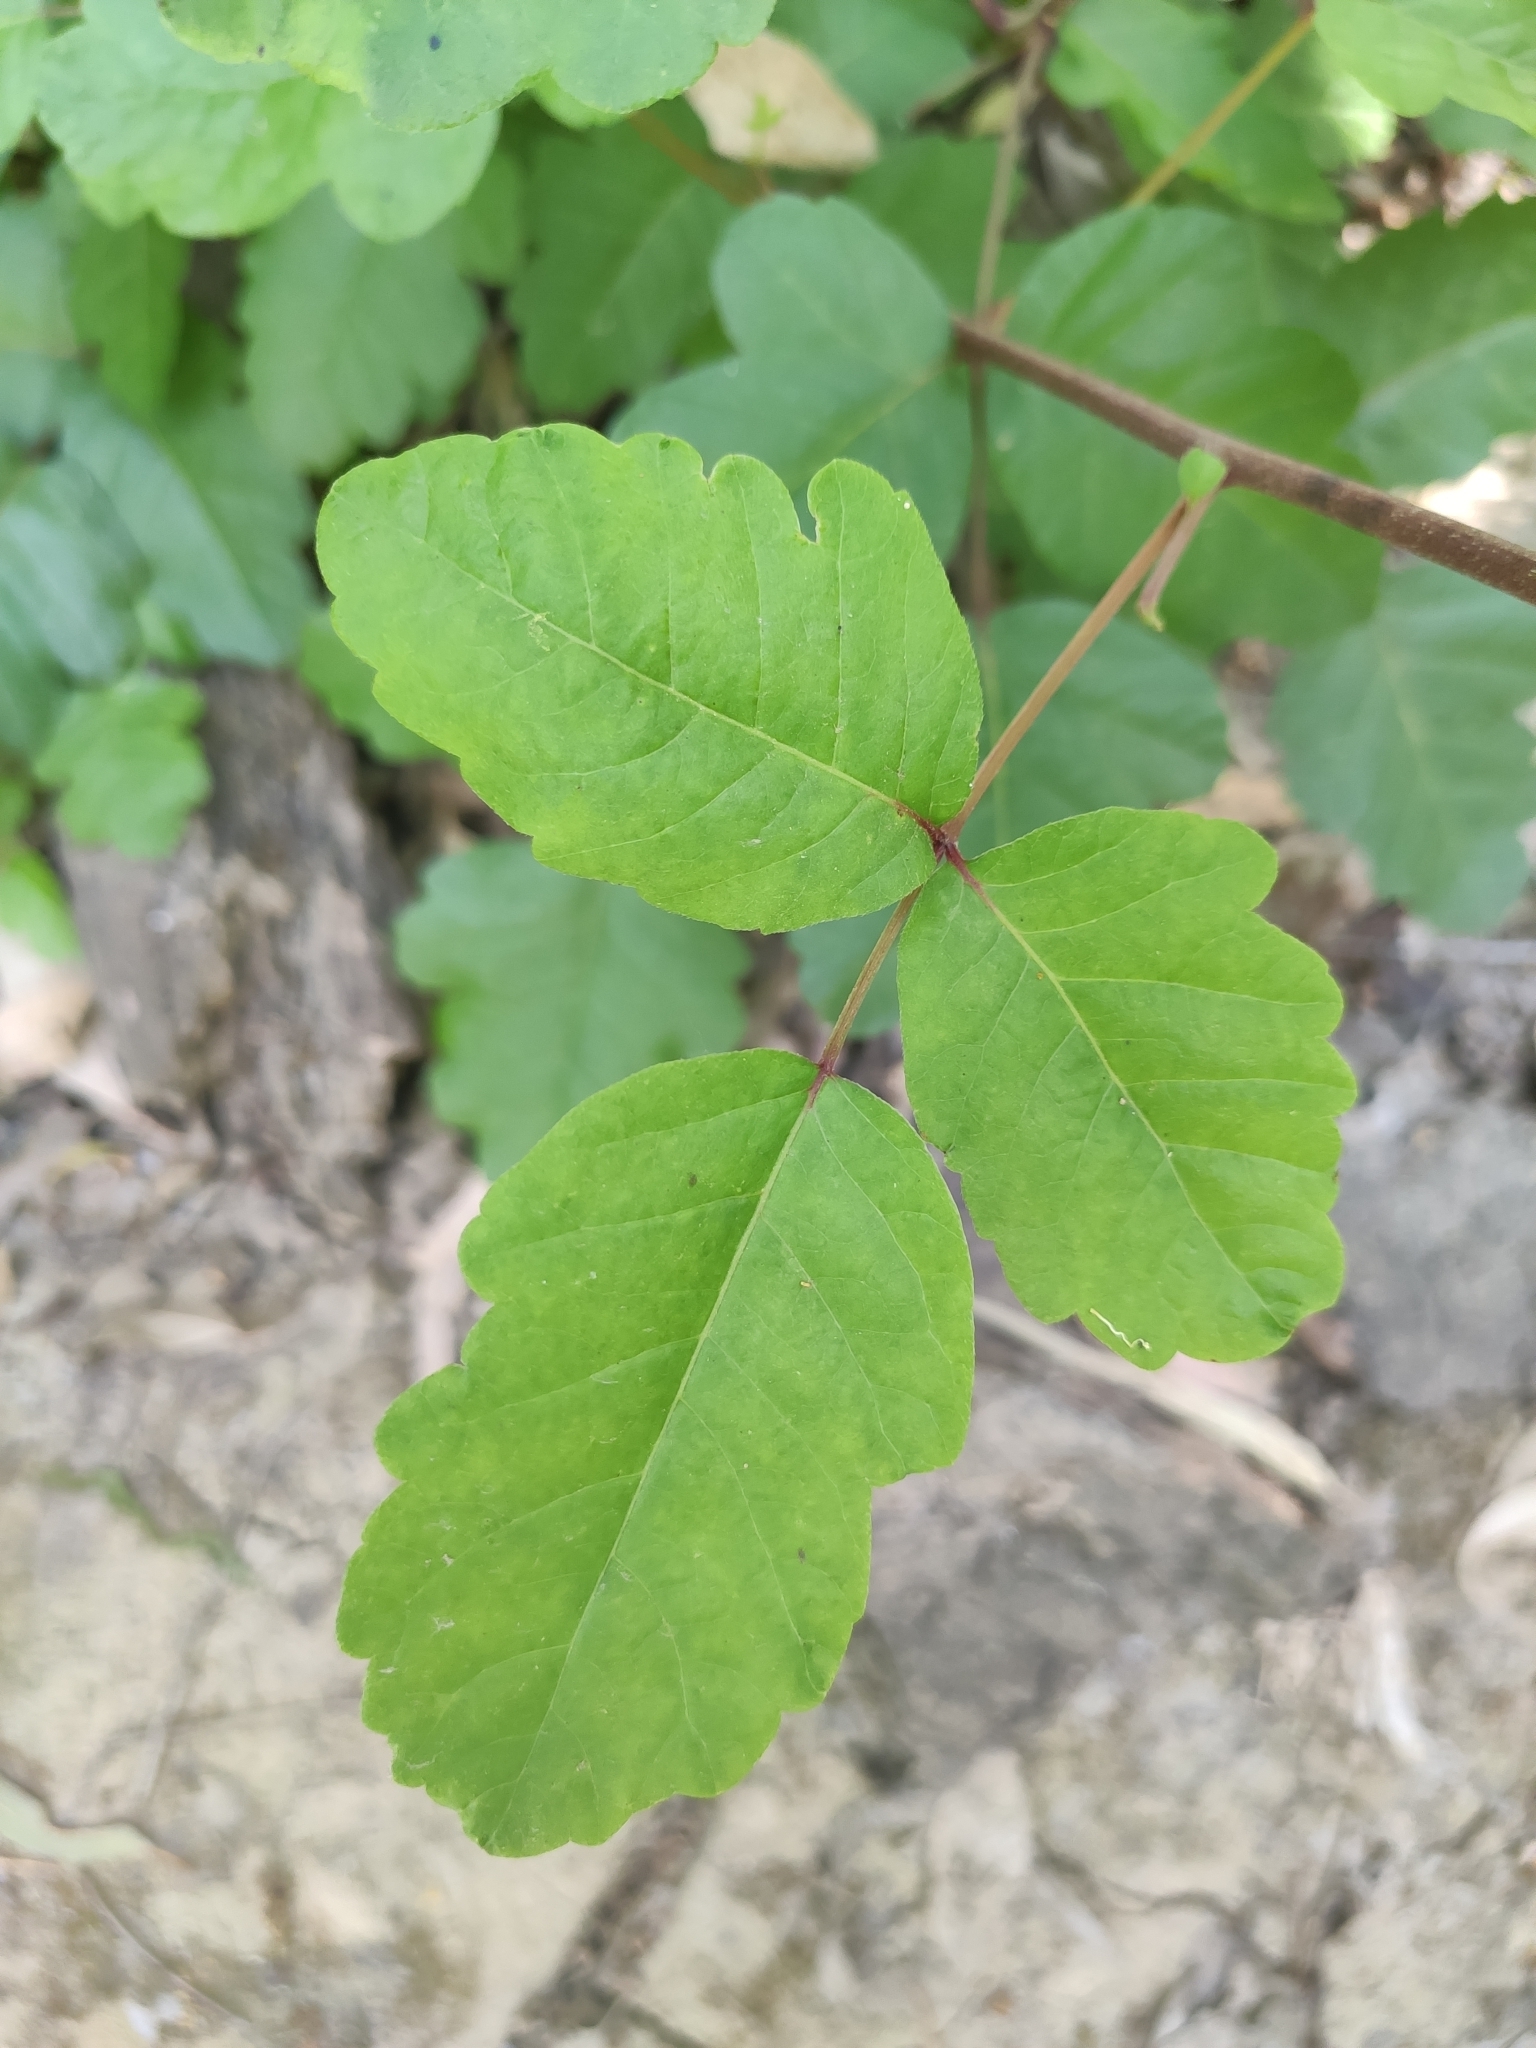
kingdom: Plantae
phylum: Tracheophyta
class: Magnoliopsida
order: Sapindales
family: Anacardiaceae
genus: Toxicodendron
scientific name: Toxicodendron diversilobum
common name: Pacific poison-oak
